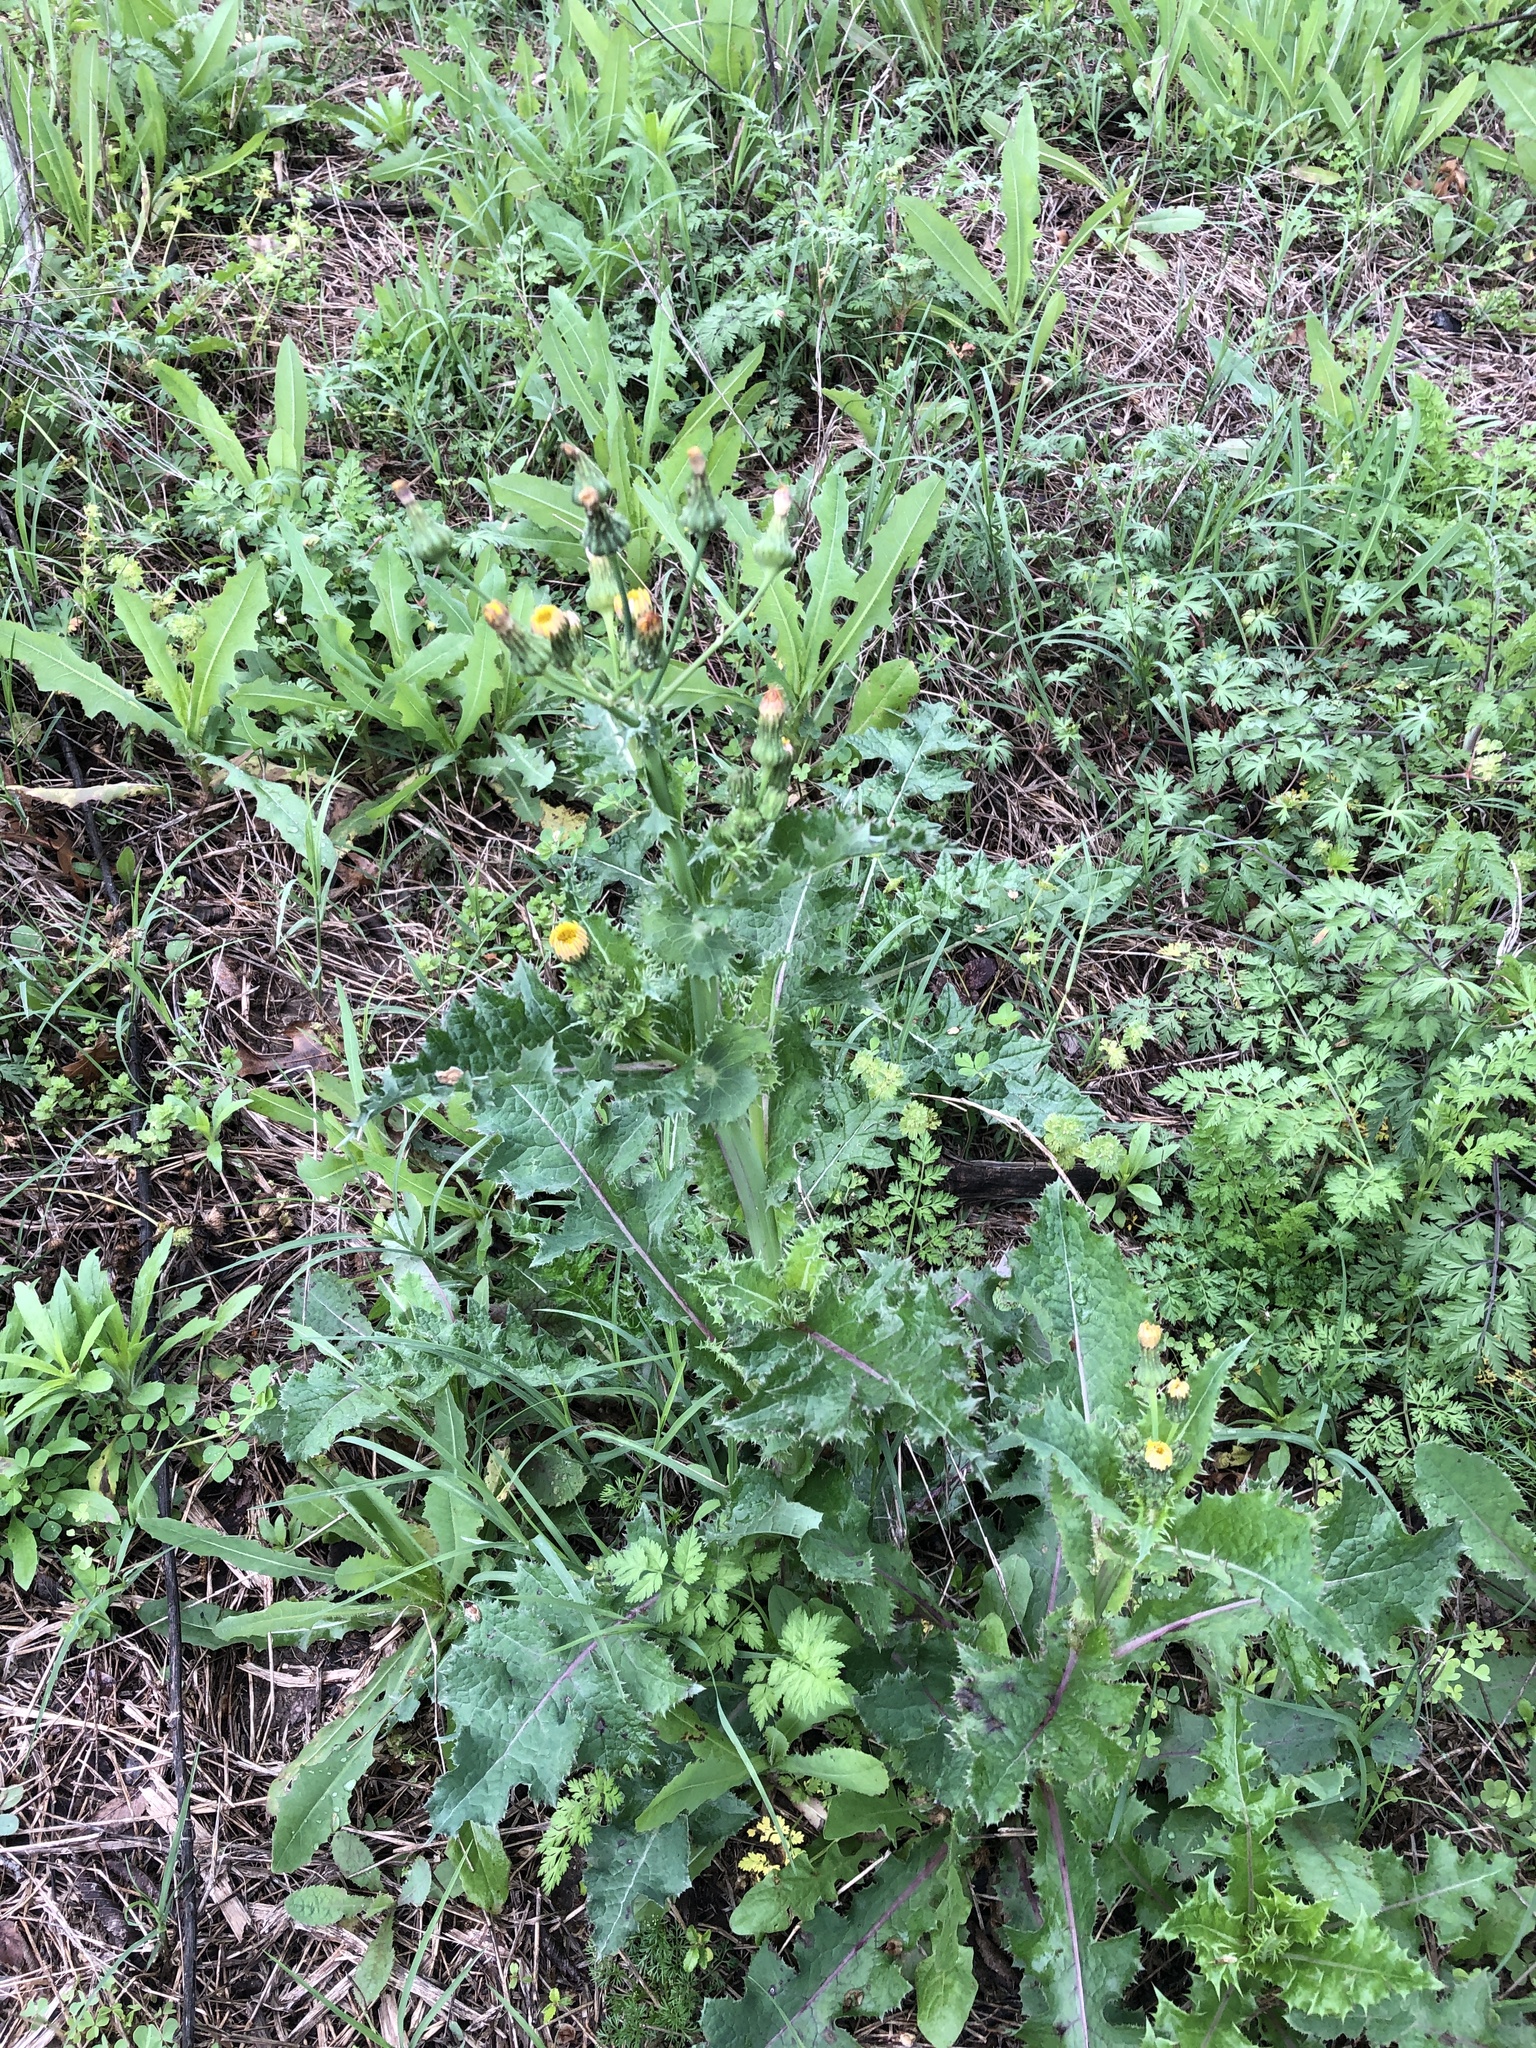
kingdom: Plantae
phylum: Tracheophyta
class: Magnoliopsida
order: Asterales
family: Asteraceae
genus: Sonchus
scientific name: Sonchus asper
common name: Prickly sow-thistle
